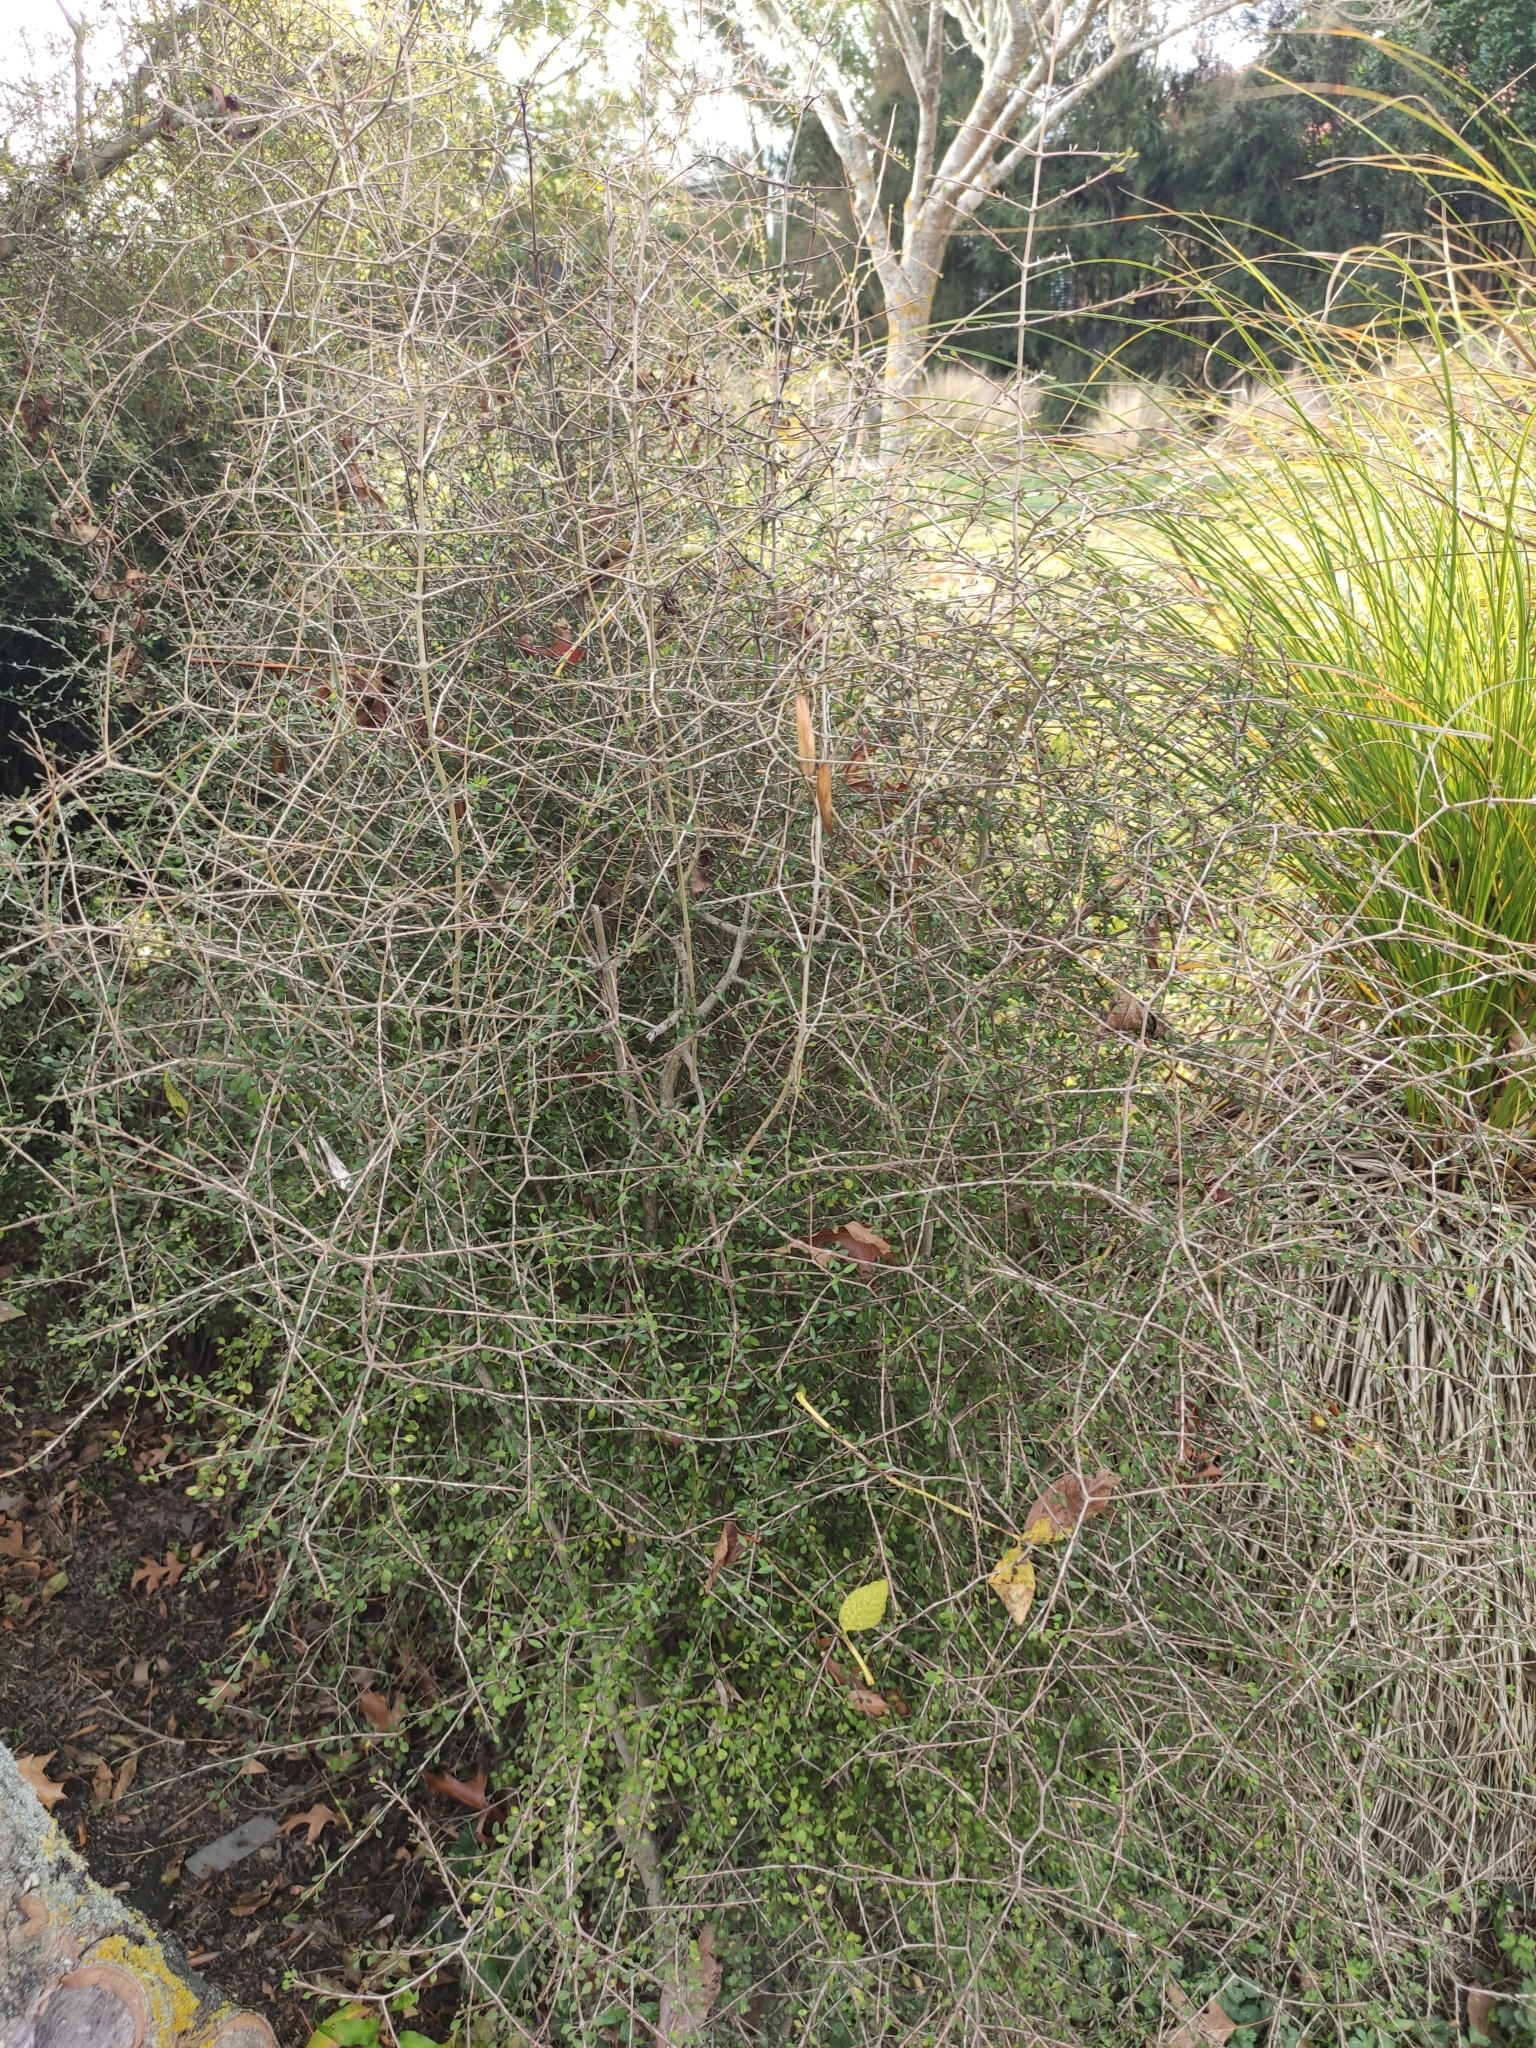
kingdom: Plantae
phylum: Tracheophyta
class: Magnoliopsida
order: Gentianales
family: Rubiaceae
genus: Coprosma
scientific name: Coprosma propinqua
